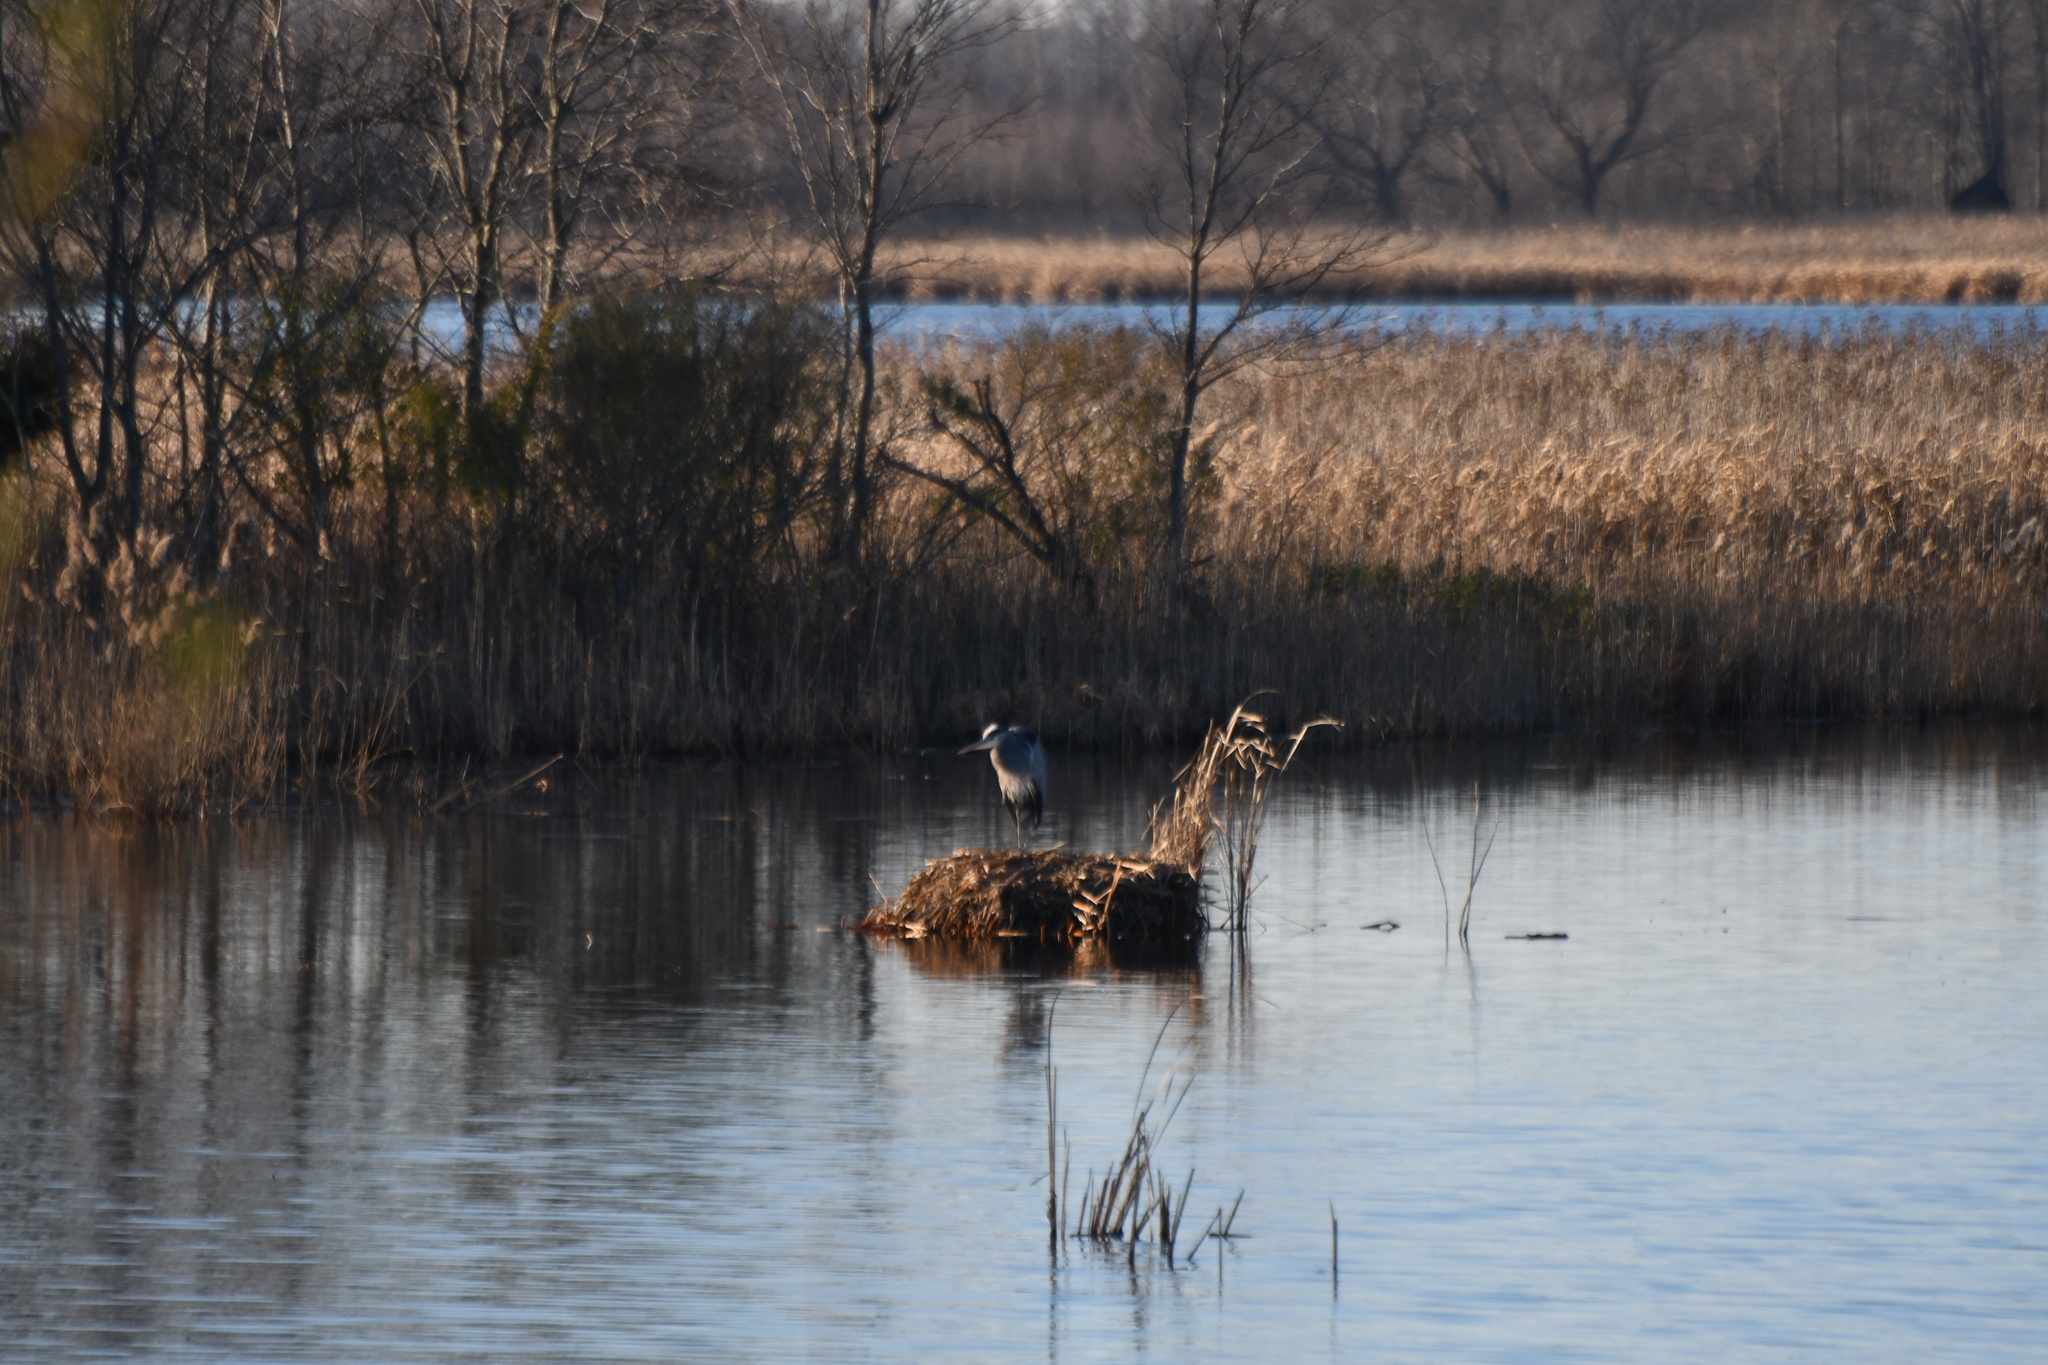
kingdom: Animalia
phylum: Chordata
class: Aves
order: Pelecaniformes
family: Ardeidae
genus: Ardea
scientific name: Ardea herodias
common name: Great blue heron
